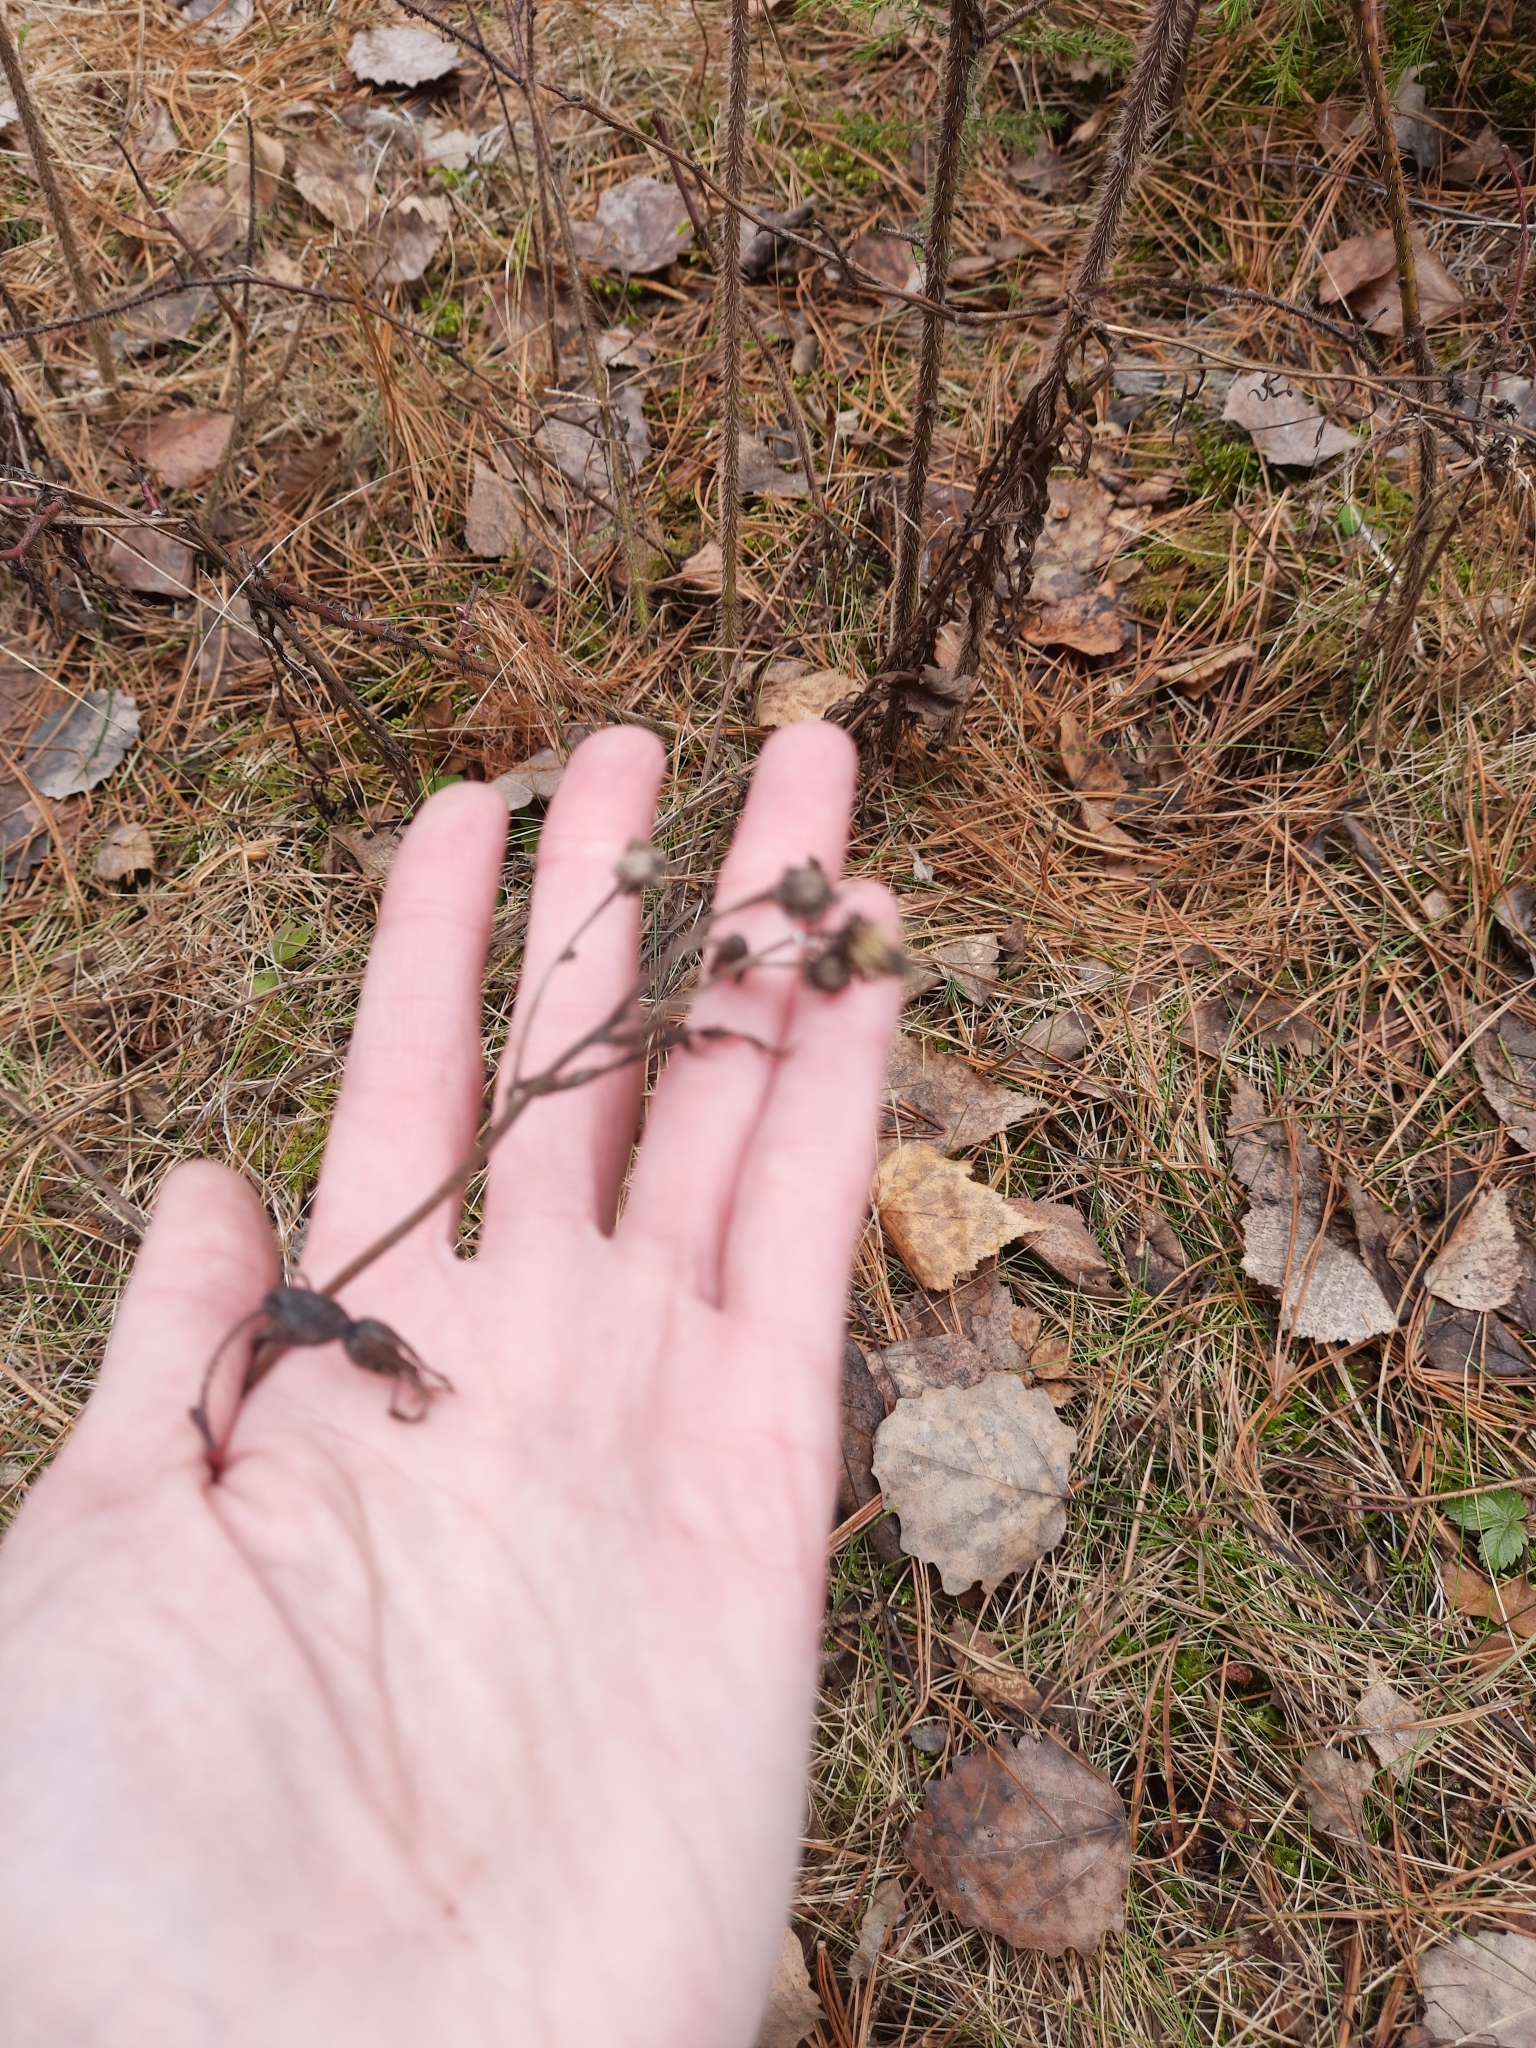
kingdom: Plantae
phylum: Tracheophyta
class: Magnoliopsida
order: Asterales
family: Asteraceae
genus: Hieracium
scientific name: Hieracium umbellatum
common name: Northern hawkweed
